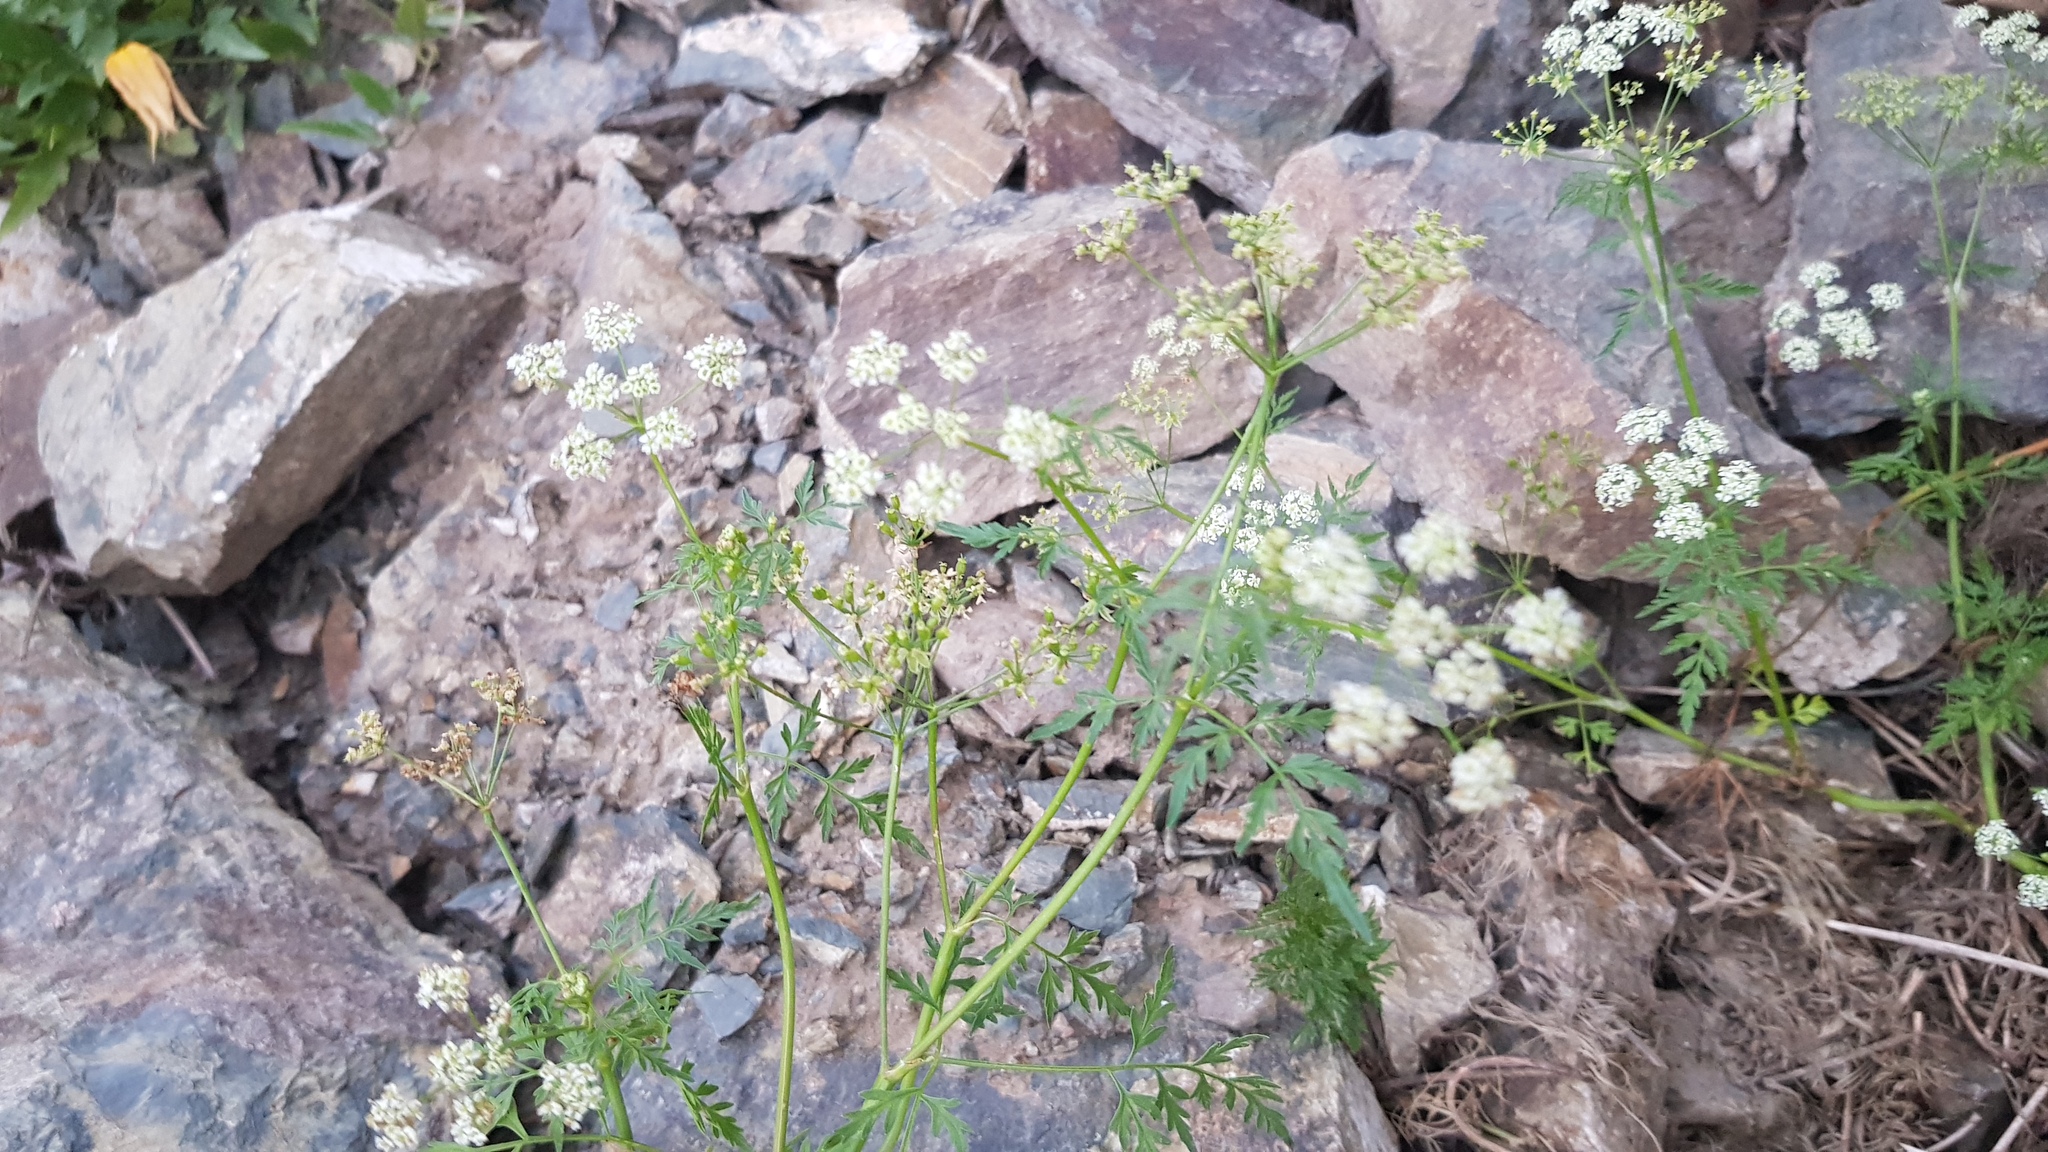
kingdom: Plantae
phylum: Tracheophyta
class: Magnoliopsida
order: Apiales
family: Apiaceae
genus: Sphallerocarpus
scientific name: Sphallerocarpus gracilis
